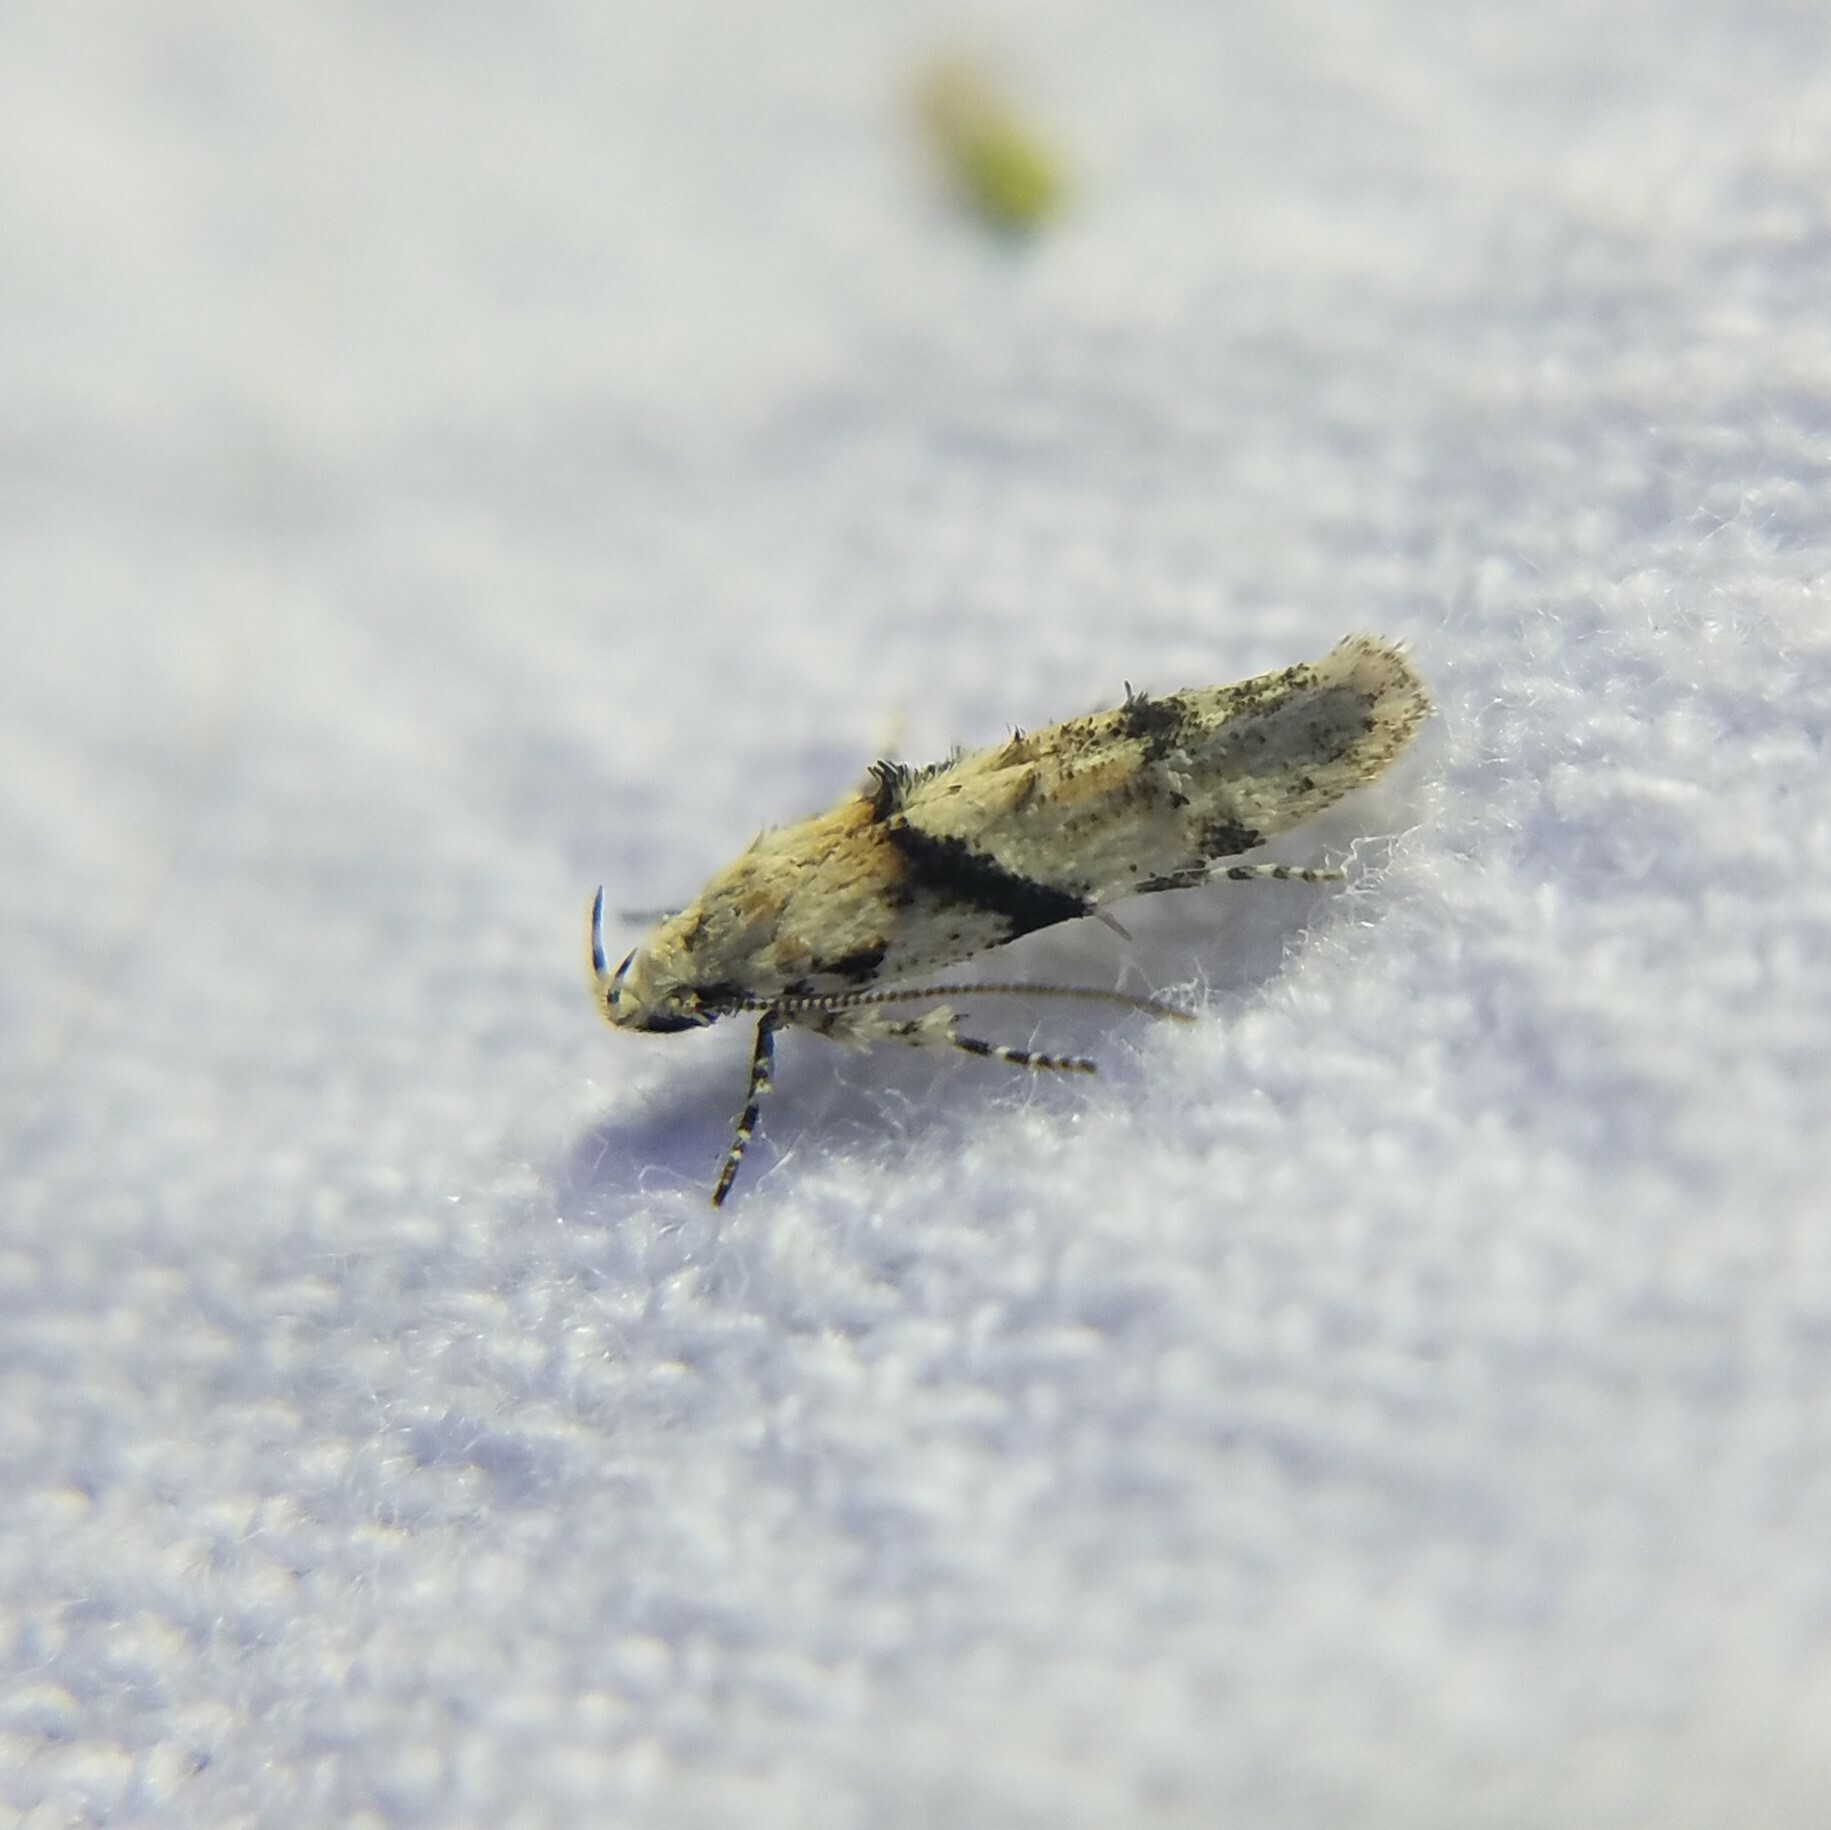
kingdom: Animalia
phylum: Arthropoda
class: Insecta
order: Lepidoptera
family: Gelechiidae
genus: Arogalea
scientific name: Arogalea cristifasciella
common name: White stripe-backed moth
